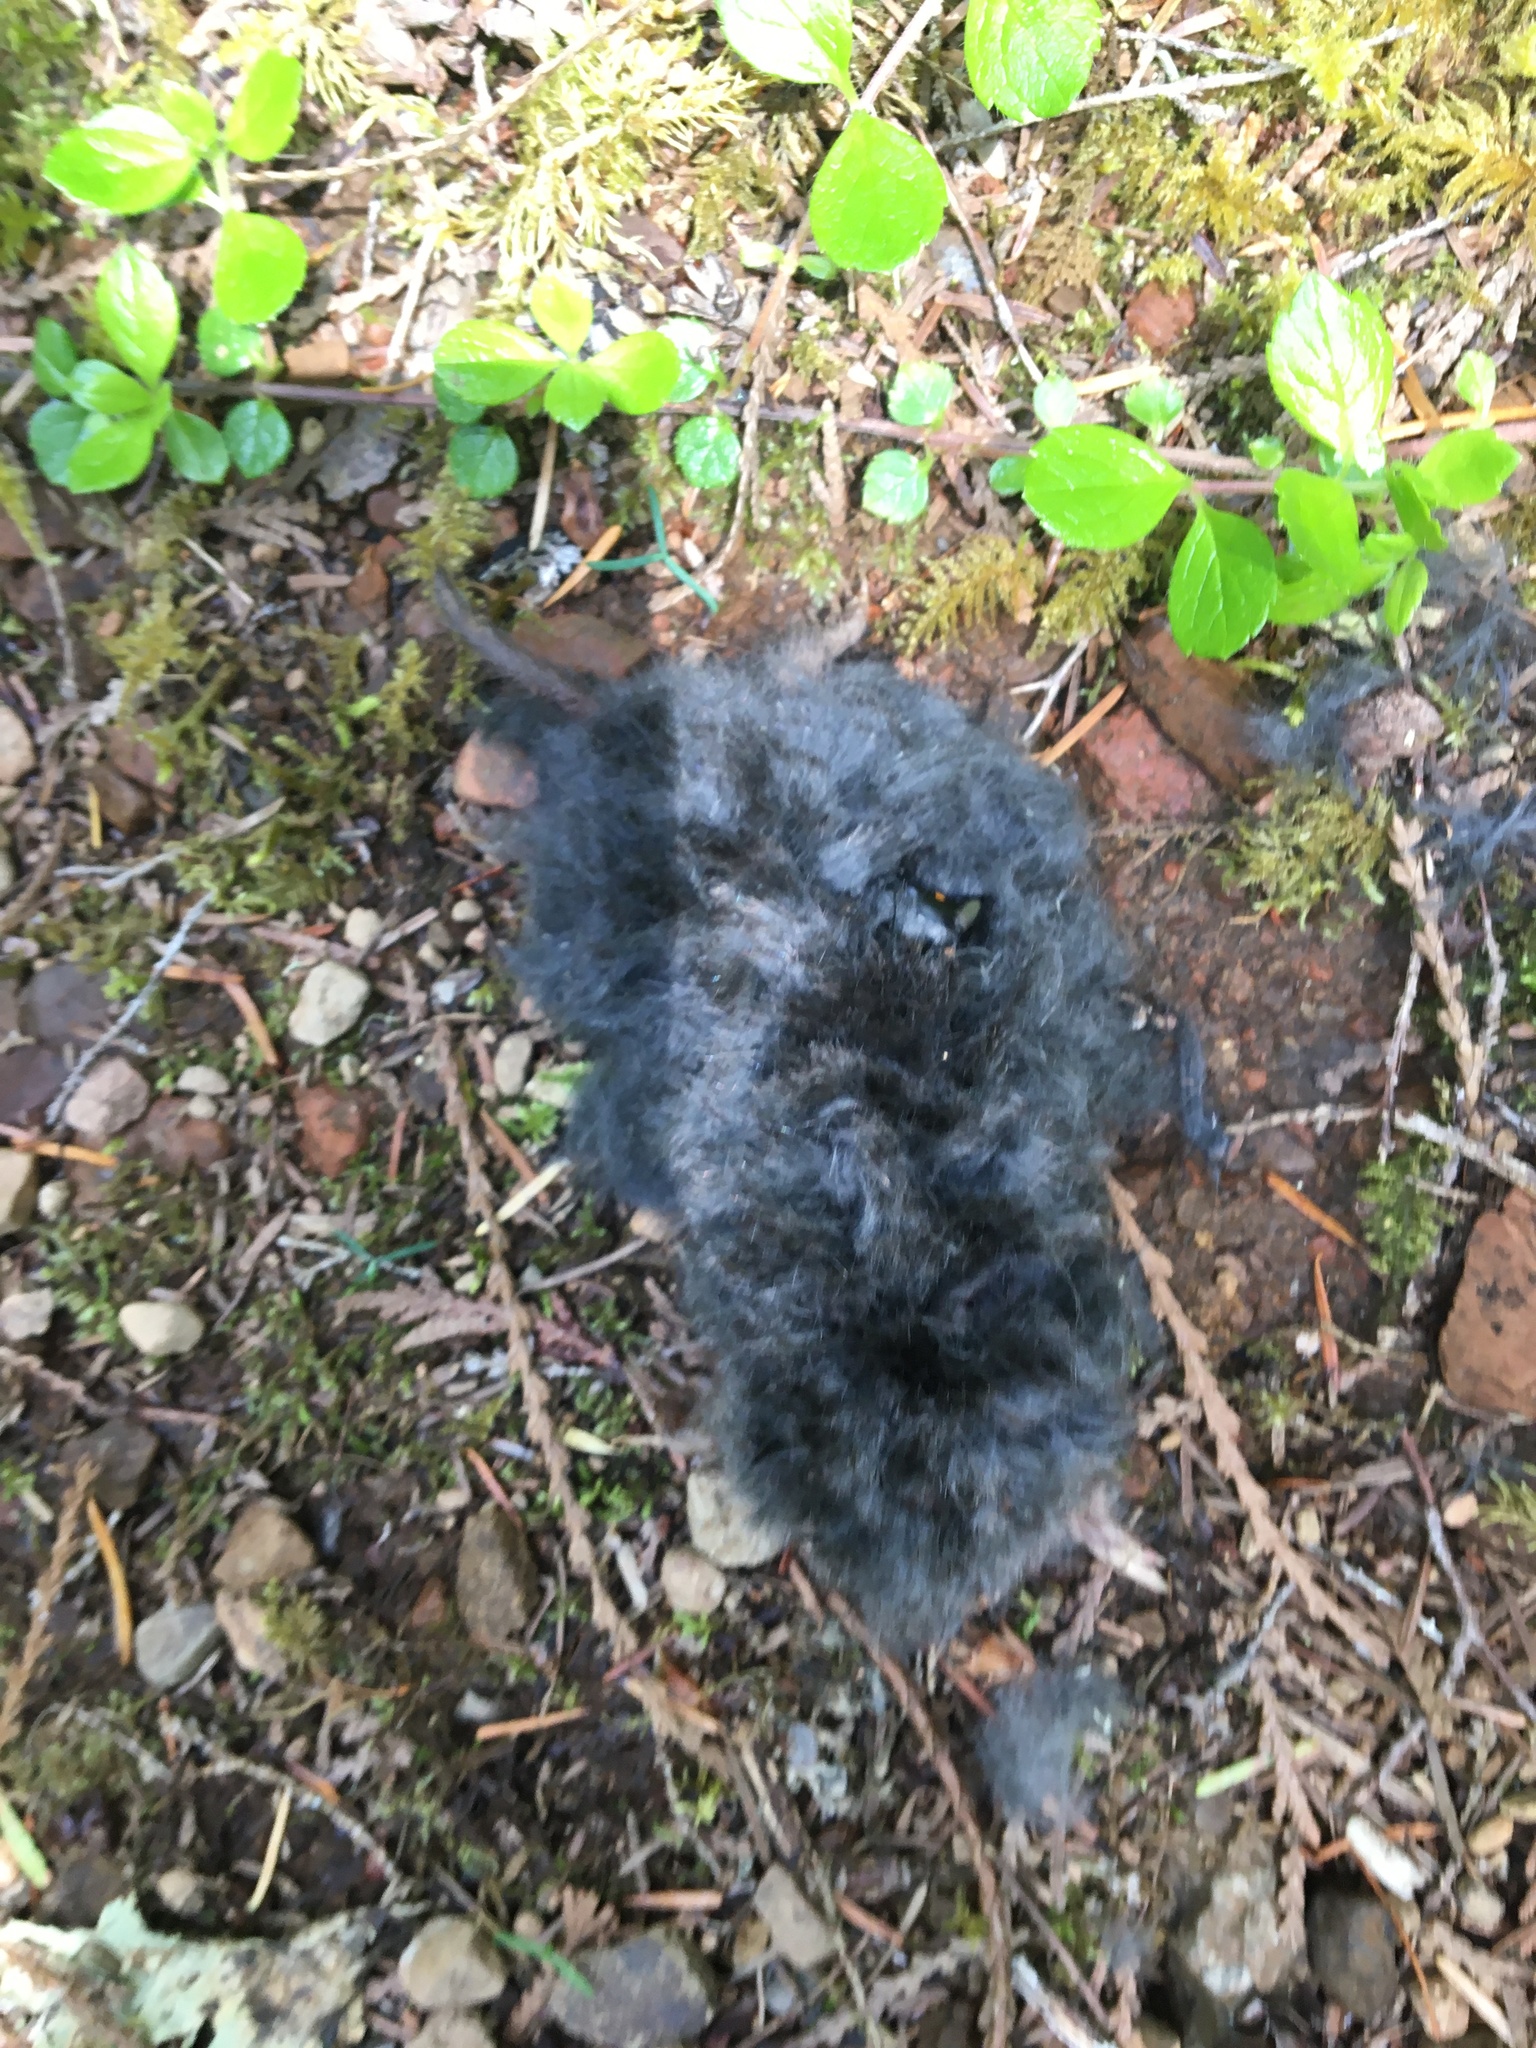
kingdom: Animalia
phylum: Chordata
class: Mammalia
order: Soricomorpha
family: Talpidae
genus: Scapanus
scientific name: Scapanus orarius
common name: Coast mole
